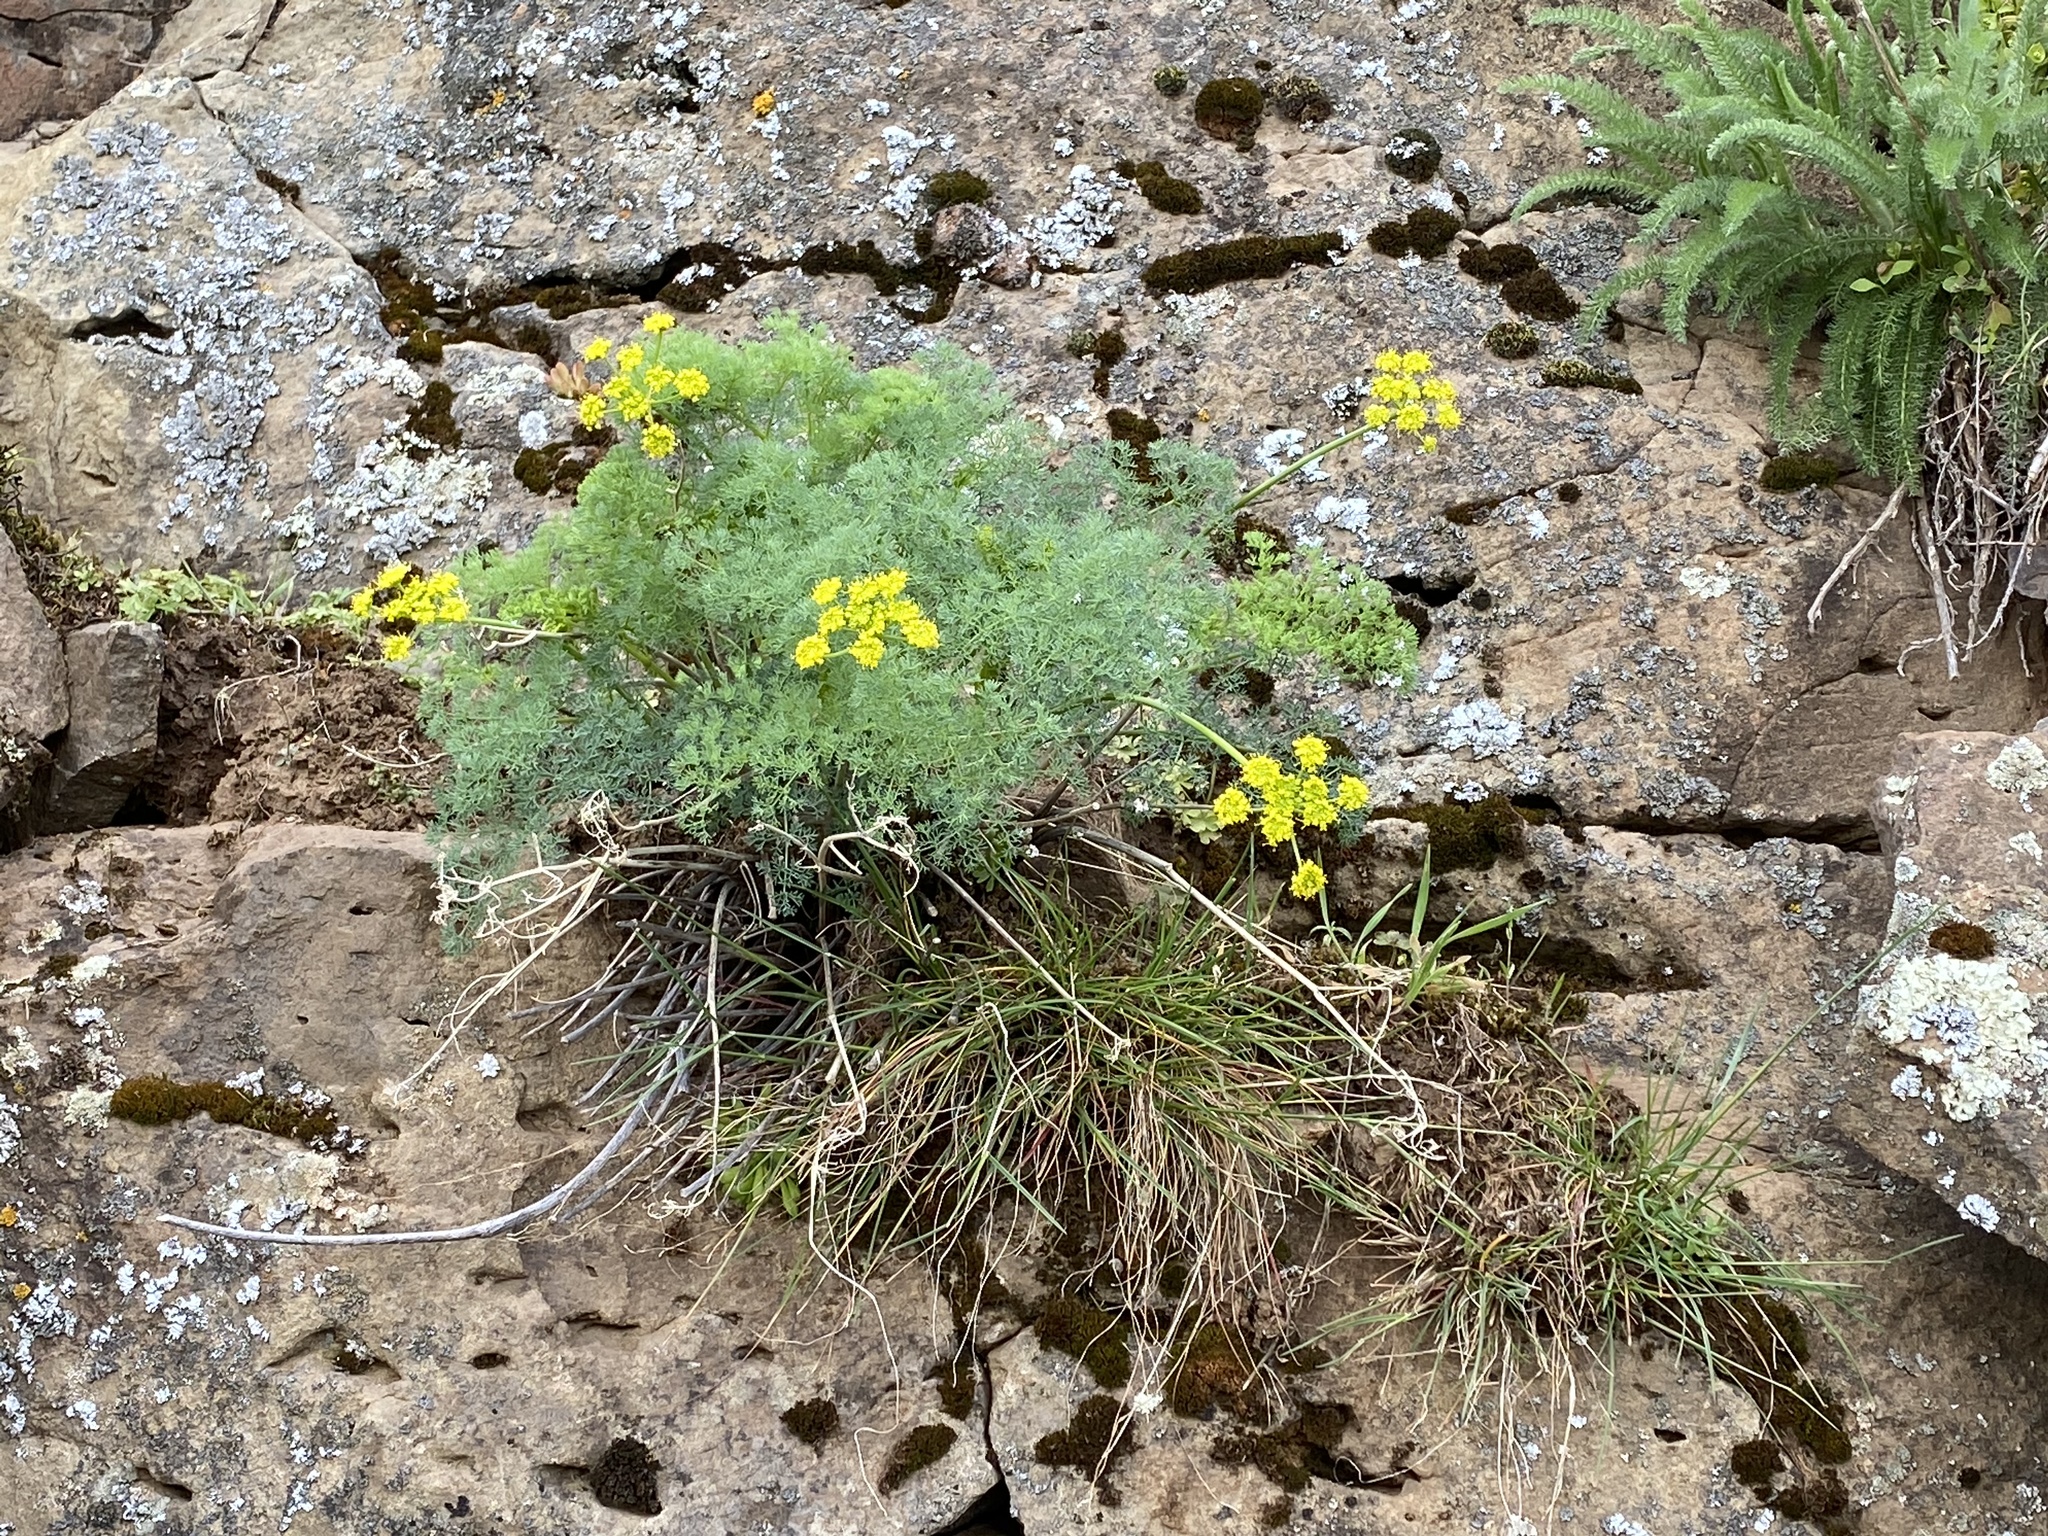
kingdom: Plantae
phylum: Tracheophyta
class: Magnoliopsida
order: Apiales
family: Apiaceae
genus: Lomatium
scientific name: Lomatium papilioniferum
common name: Butterfly lomatium
